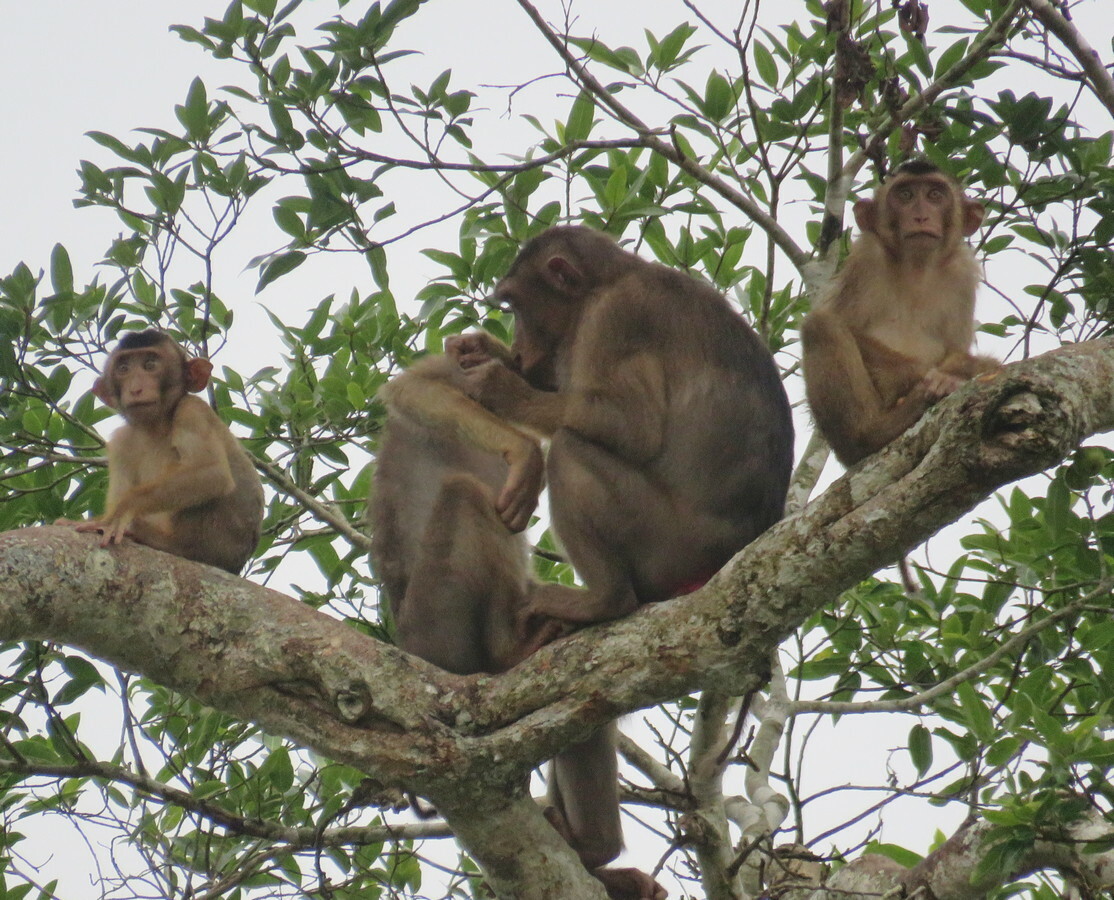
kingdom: Animalia
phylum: Chordata
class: Mammalia
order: Primates
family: Cercopithecidae
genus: Macaca
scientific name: Macaca nemestrina
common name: Southern pig-tailed macaque
